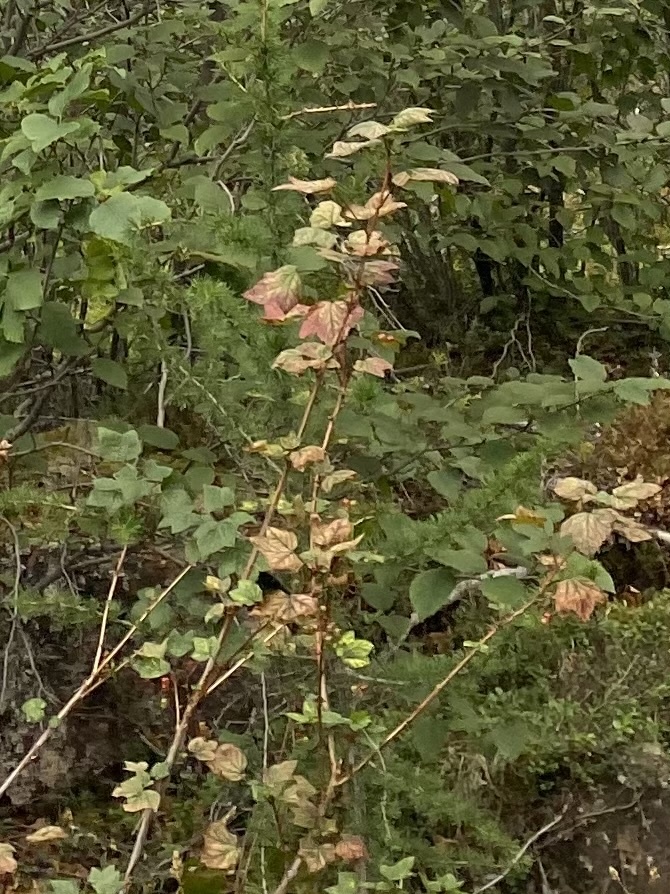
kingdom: Plantae
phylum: Tracheophyta
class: Magnoliopsida
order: Saxifragales
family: Grossulariaceae
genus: Ribes
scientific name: Ribes triste
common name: Swamp red currant
